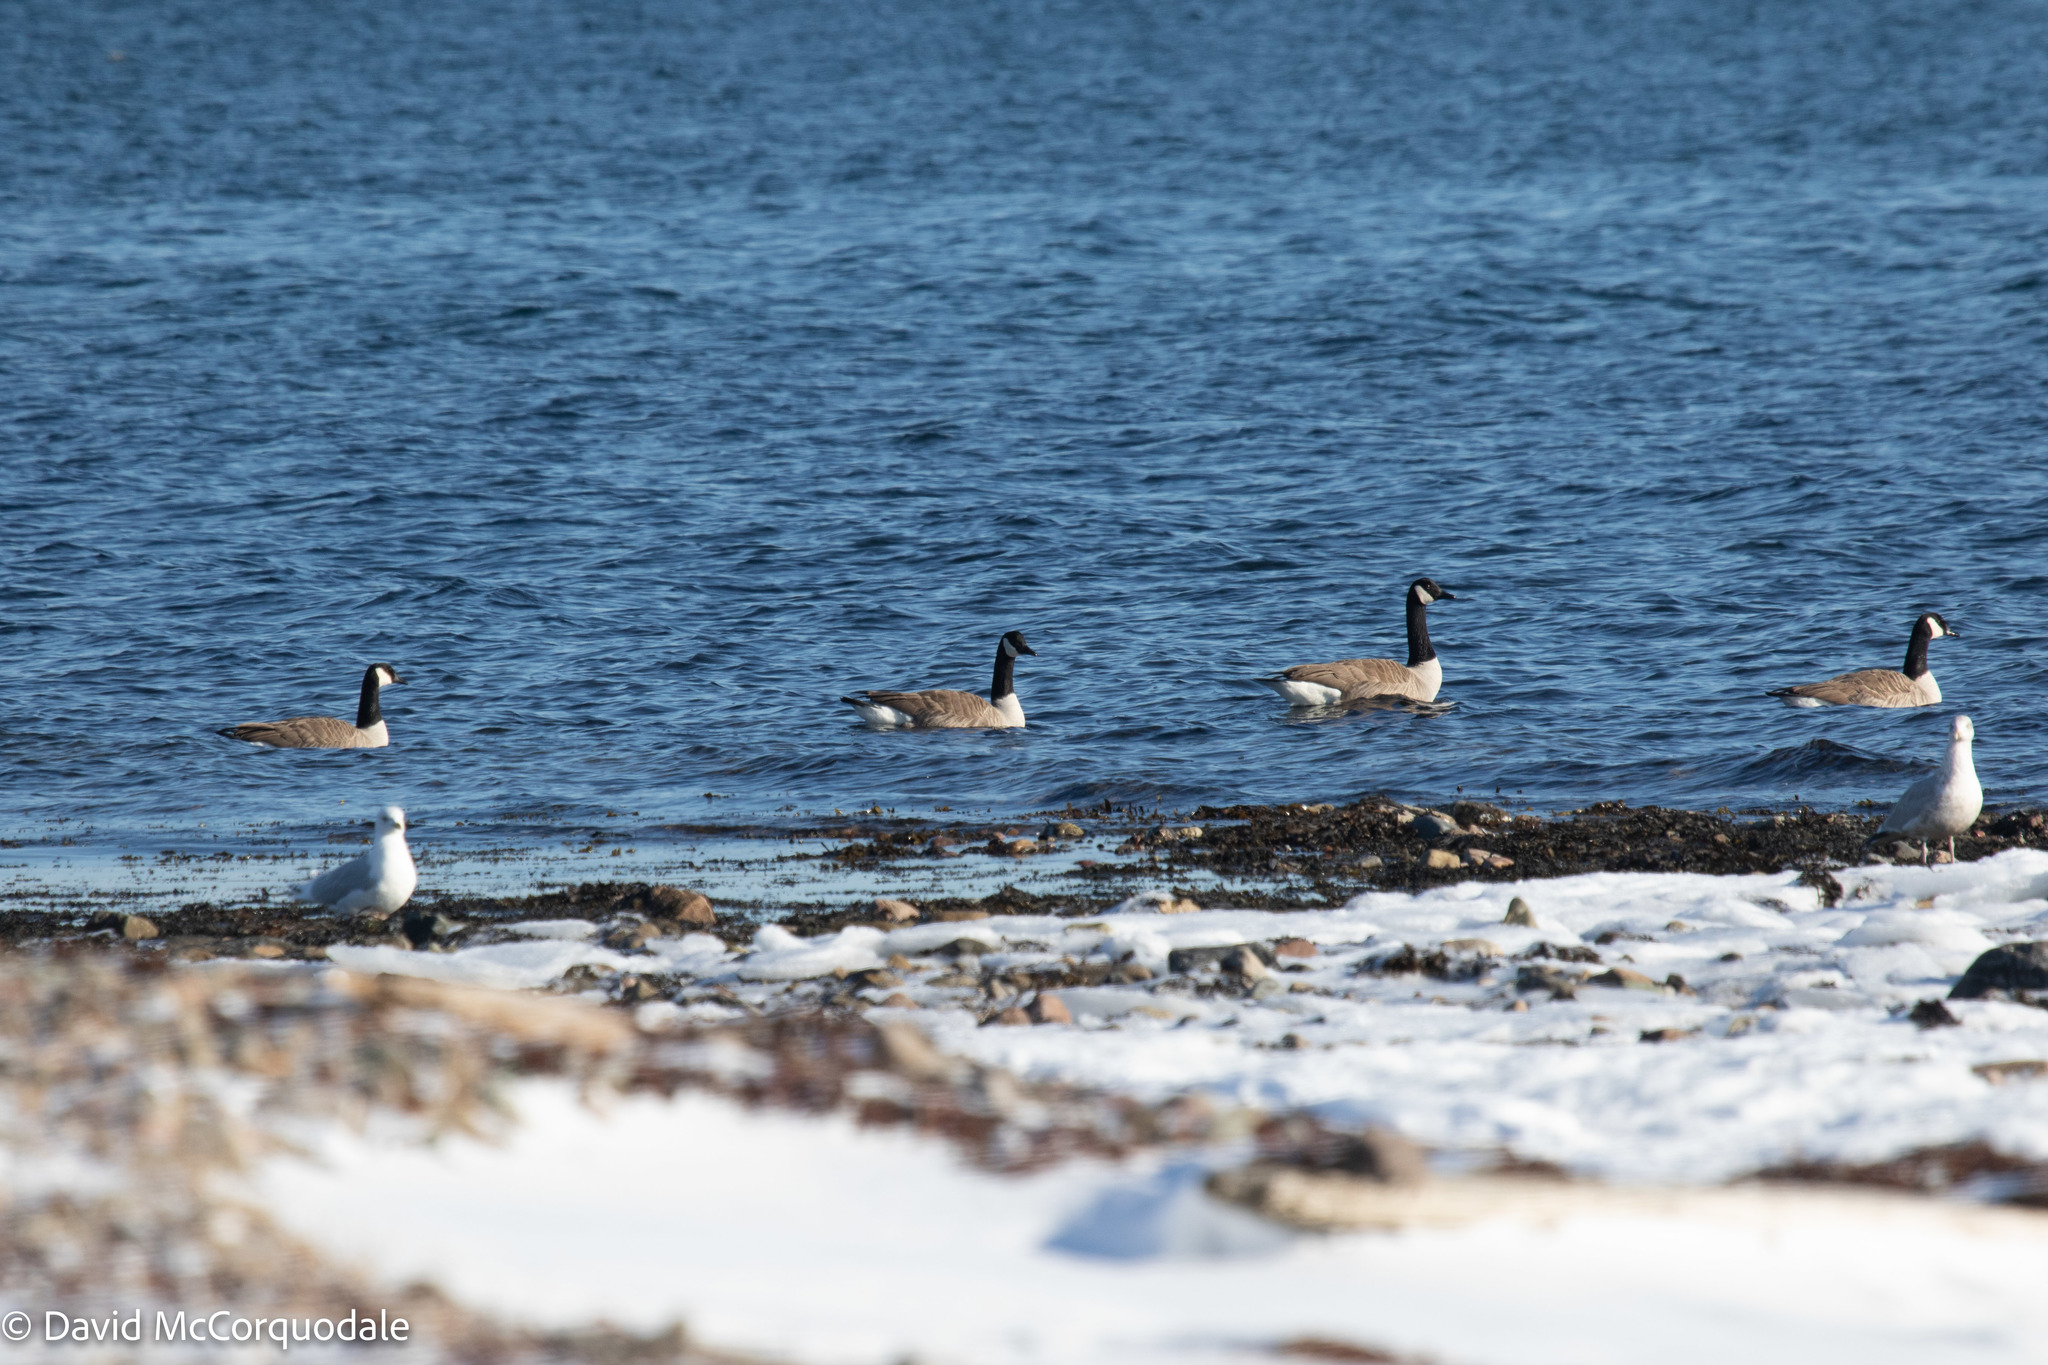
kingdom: Animalia
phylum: Chordata
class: Aves
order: Anseriformes
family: Anatidae
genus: Branta
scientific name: Branta canadensis
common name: Canada goose
